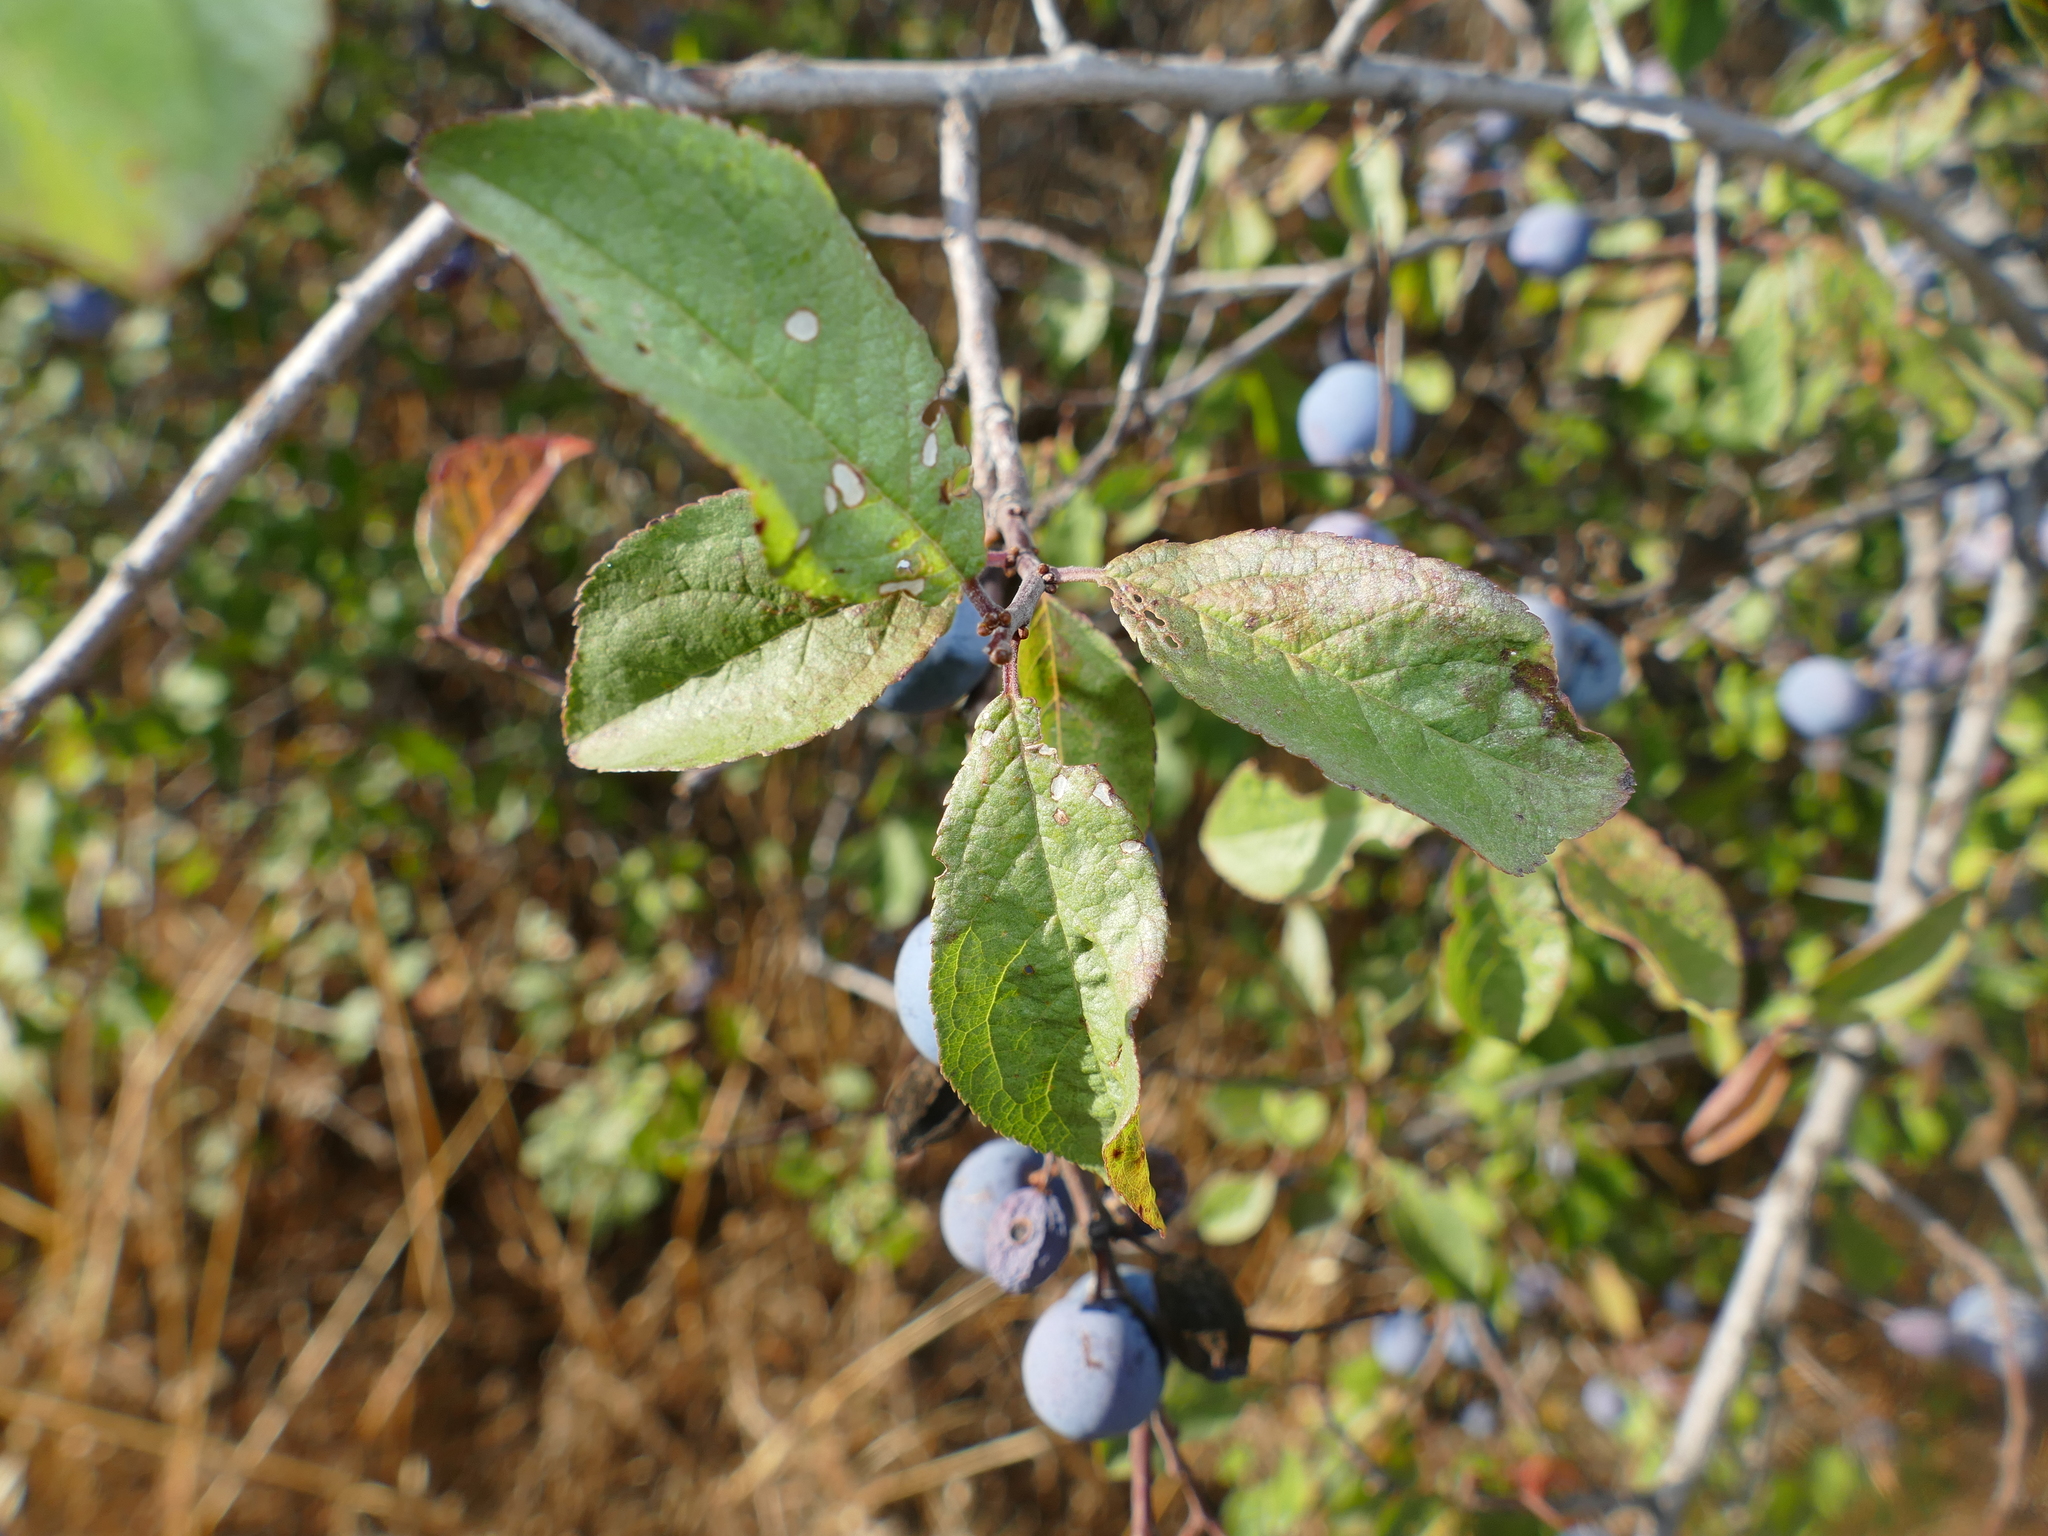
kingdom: Plantae
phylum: Tracheophyta
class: Magnoliopsida
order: Rosales
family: Rosaceae
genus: Prunus
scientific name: Prunus spinosa
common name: Blackthorn
